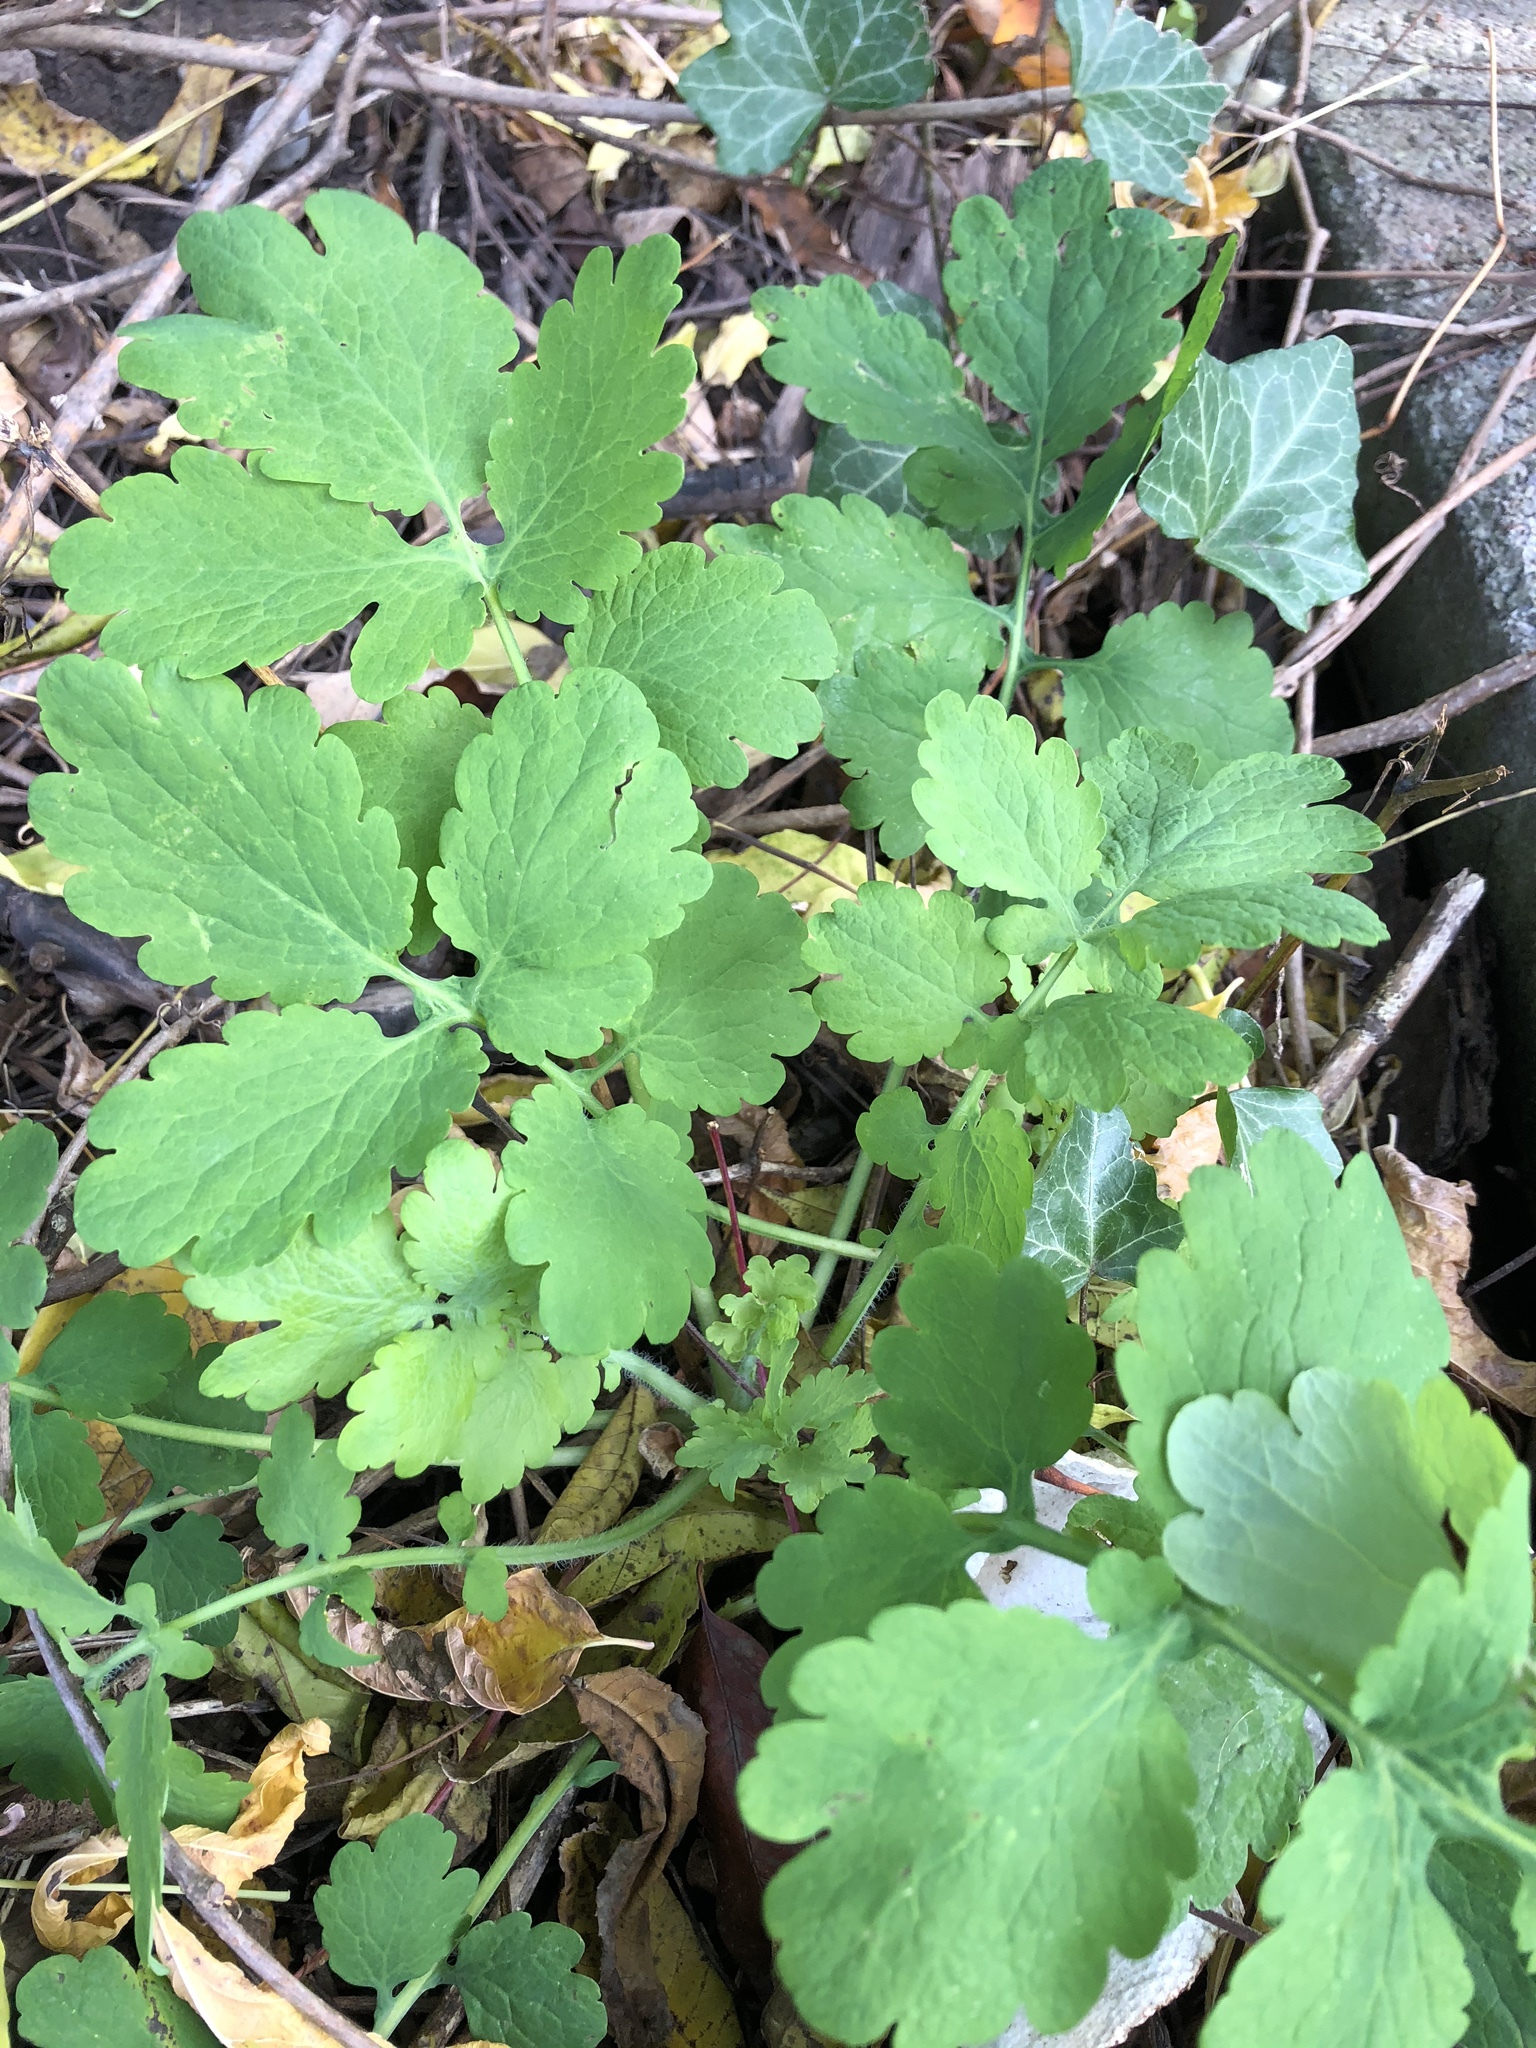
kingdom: Plantae
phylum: Tracheophyta
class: Magnoliopsida
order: Ranunculales
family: Papaveraceae
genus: Chelidonium
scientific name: Chelidonium majus
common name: Greater celandine
